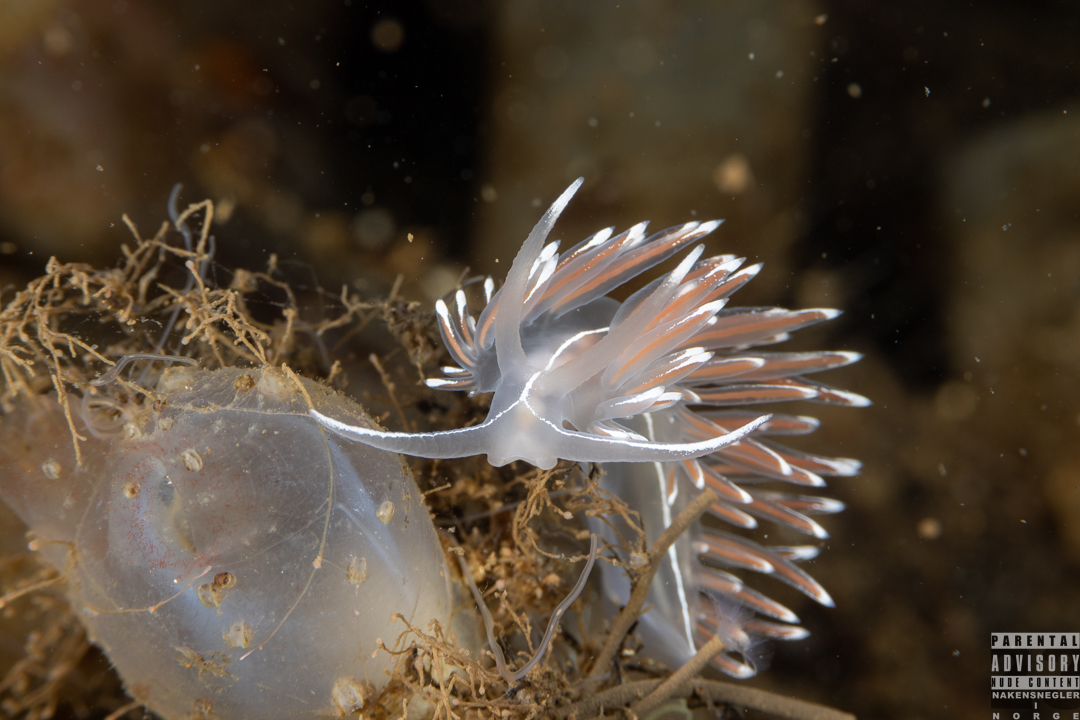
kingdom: Animalia
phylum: Mollusca
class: Gastropoda
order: Nudibranchia
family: Coryphellidae
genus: Coryphella
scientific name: Coryphella lineata
